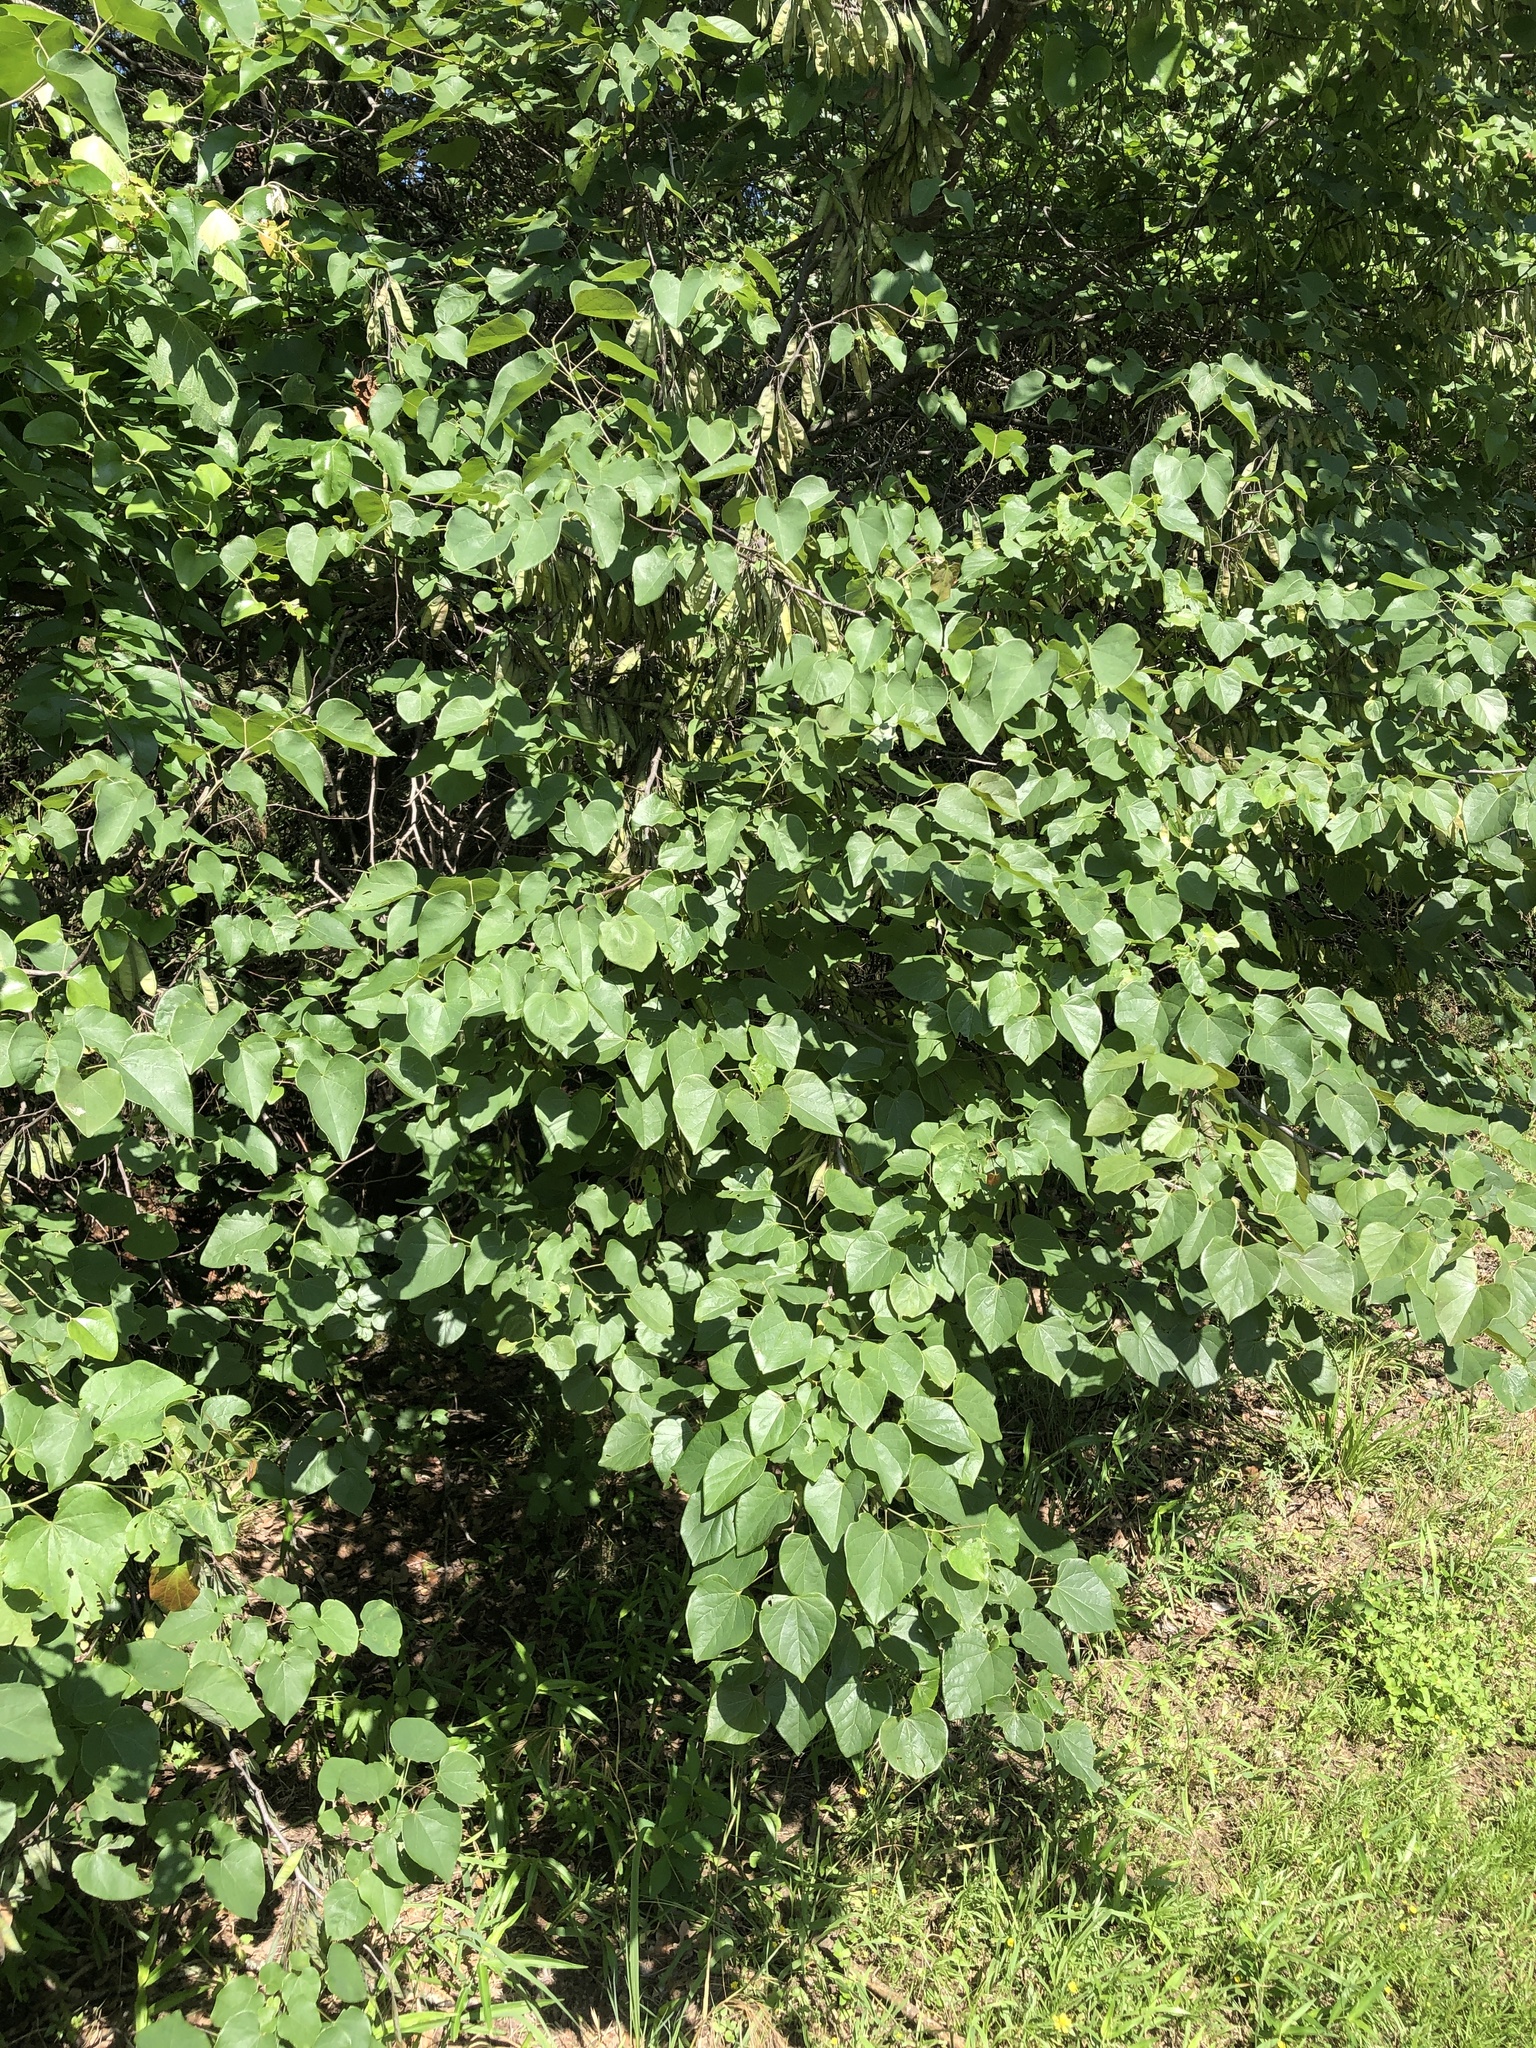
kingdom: Plantae
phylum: Tracheophyta
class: Magnoliopsida
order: Fabales
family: Fabaceae
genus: Cercis
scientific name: Cercis canadensis
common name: Eastern redbud
